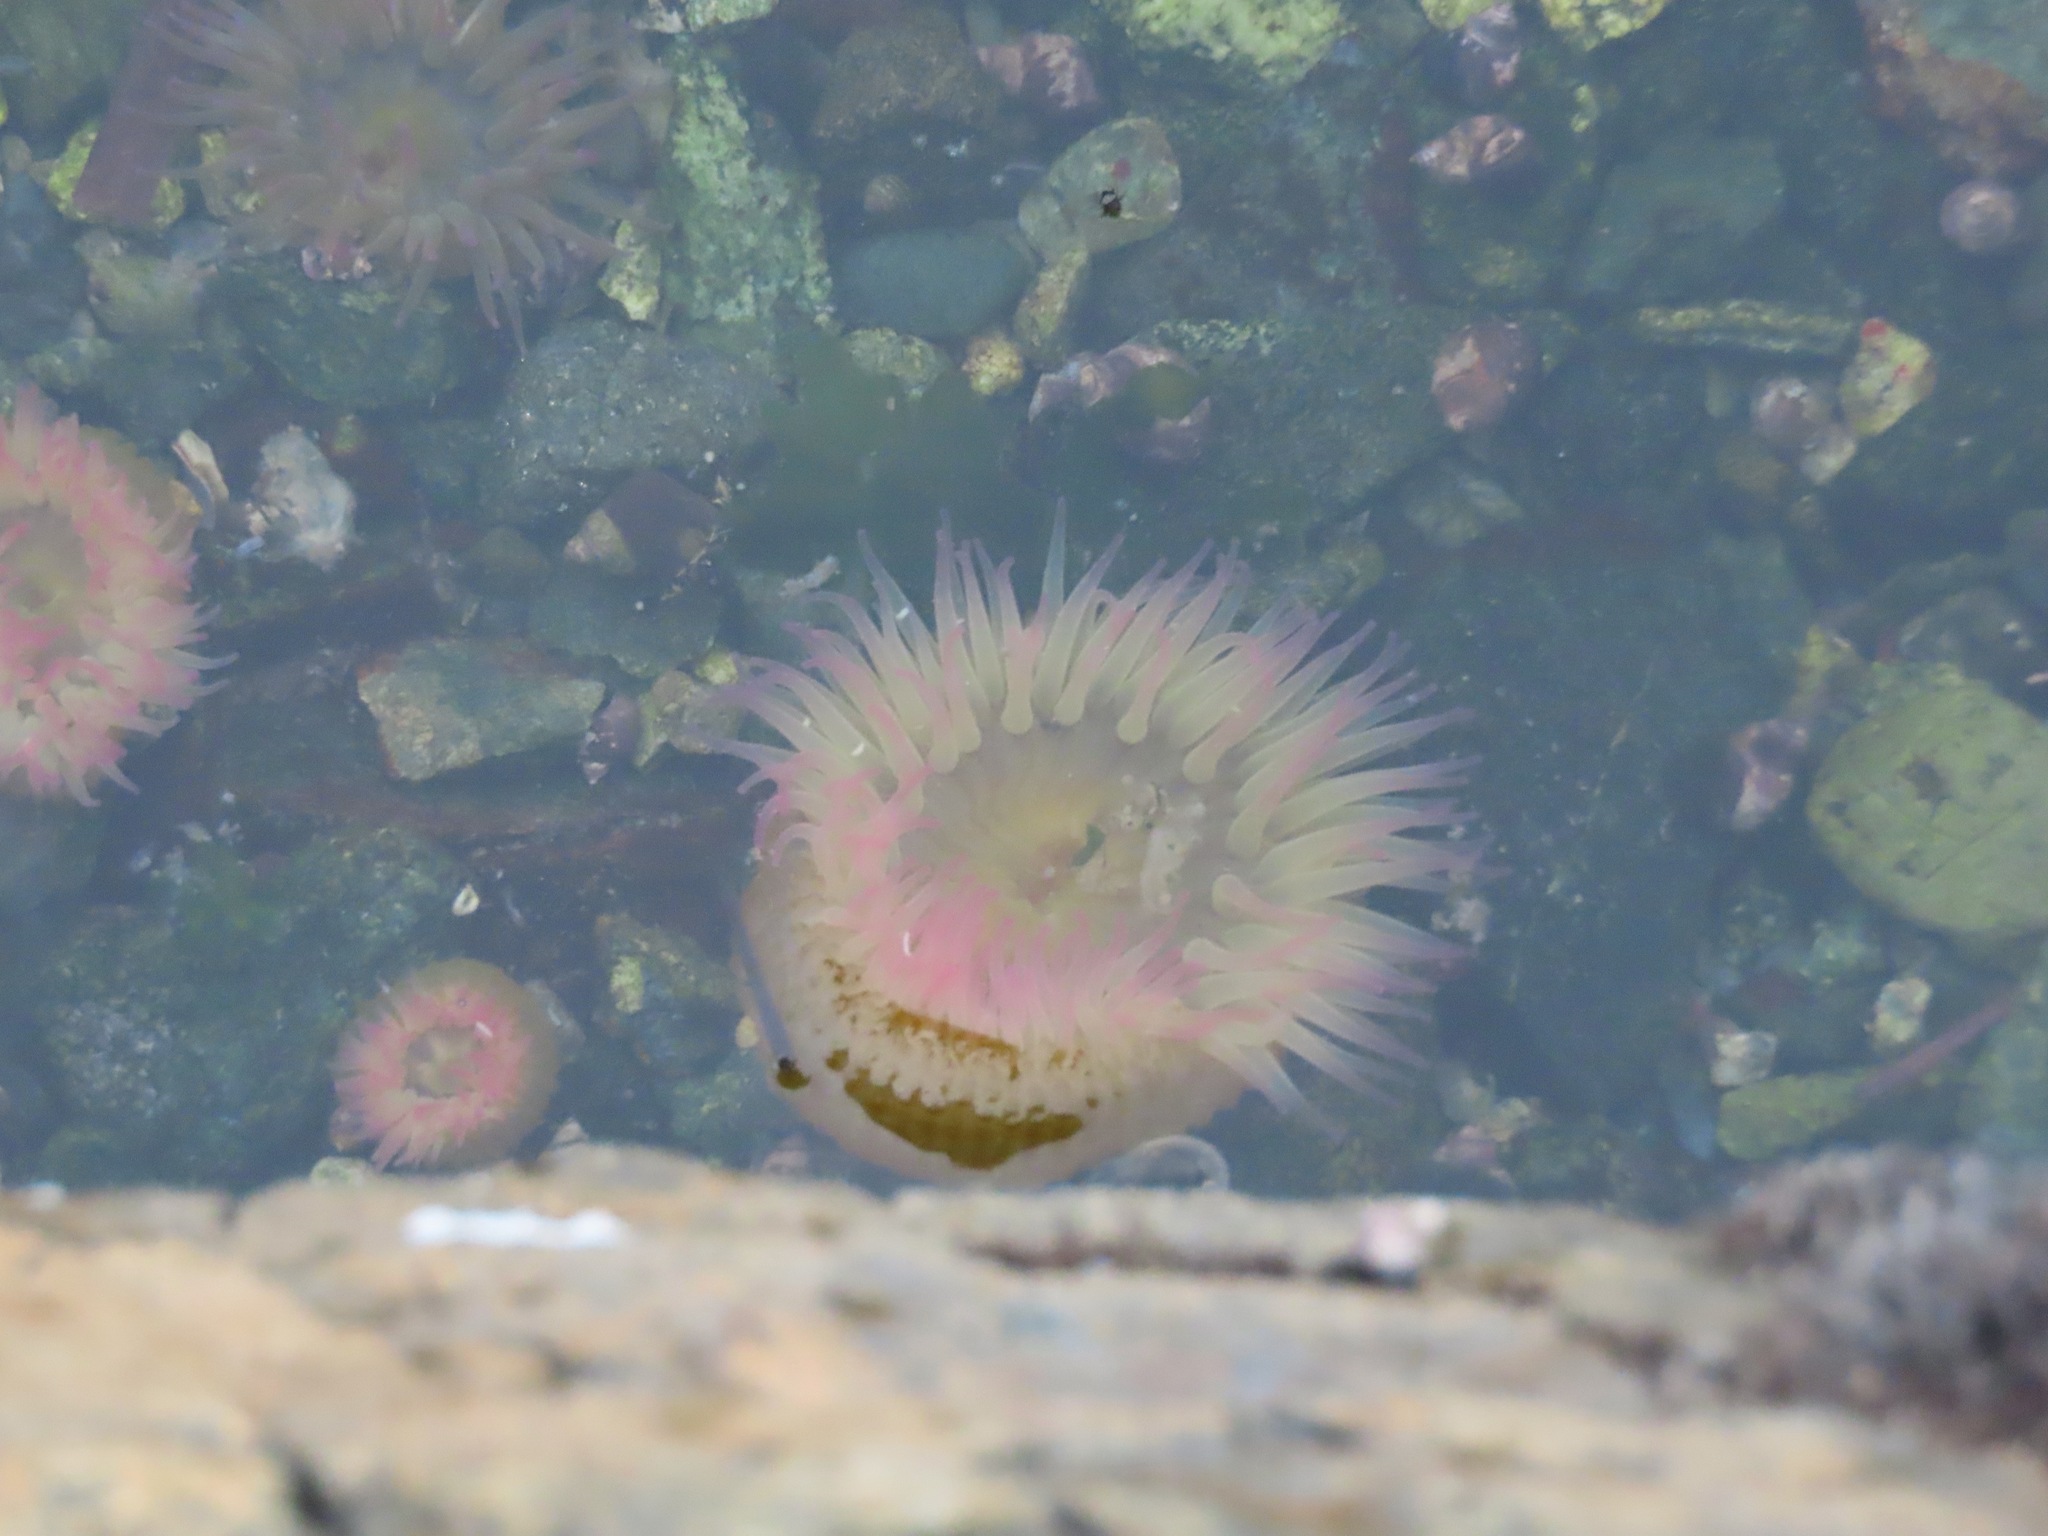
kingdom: Animalia
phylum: Cnidaria
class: Anthozoa
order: Actiniaria
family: Actiniidae
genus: Anthopleura
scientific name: Anthopleura elegantissima
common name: Clonal anemone
